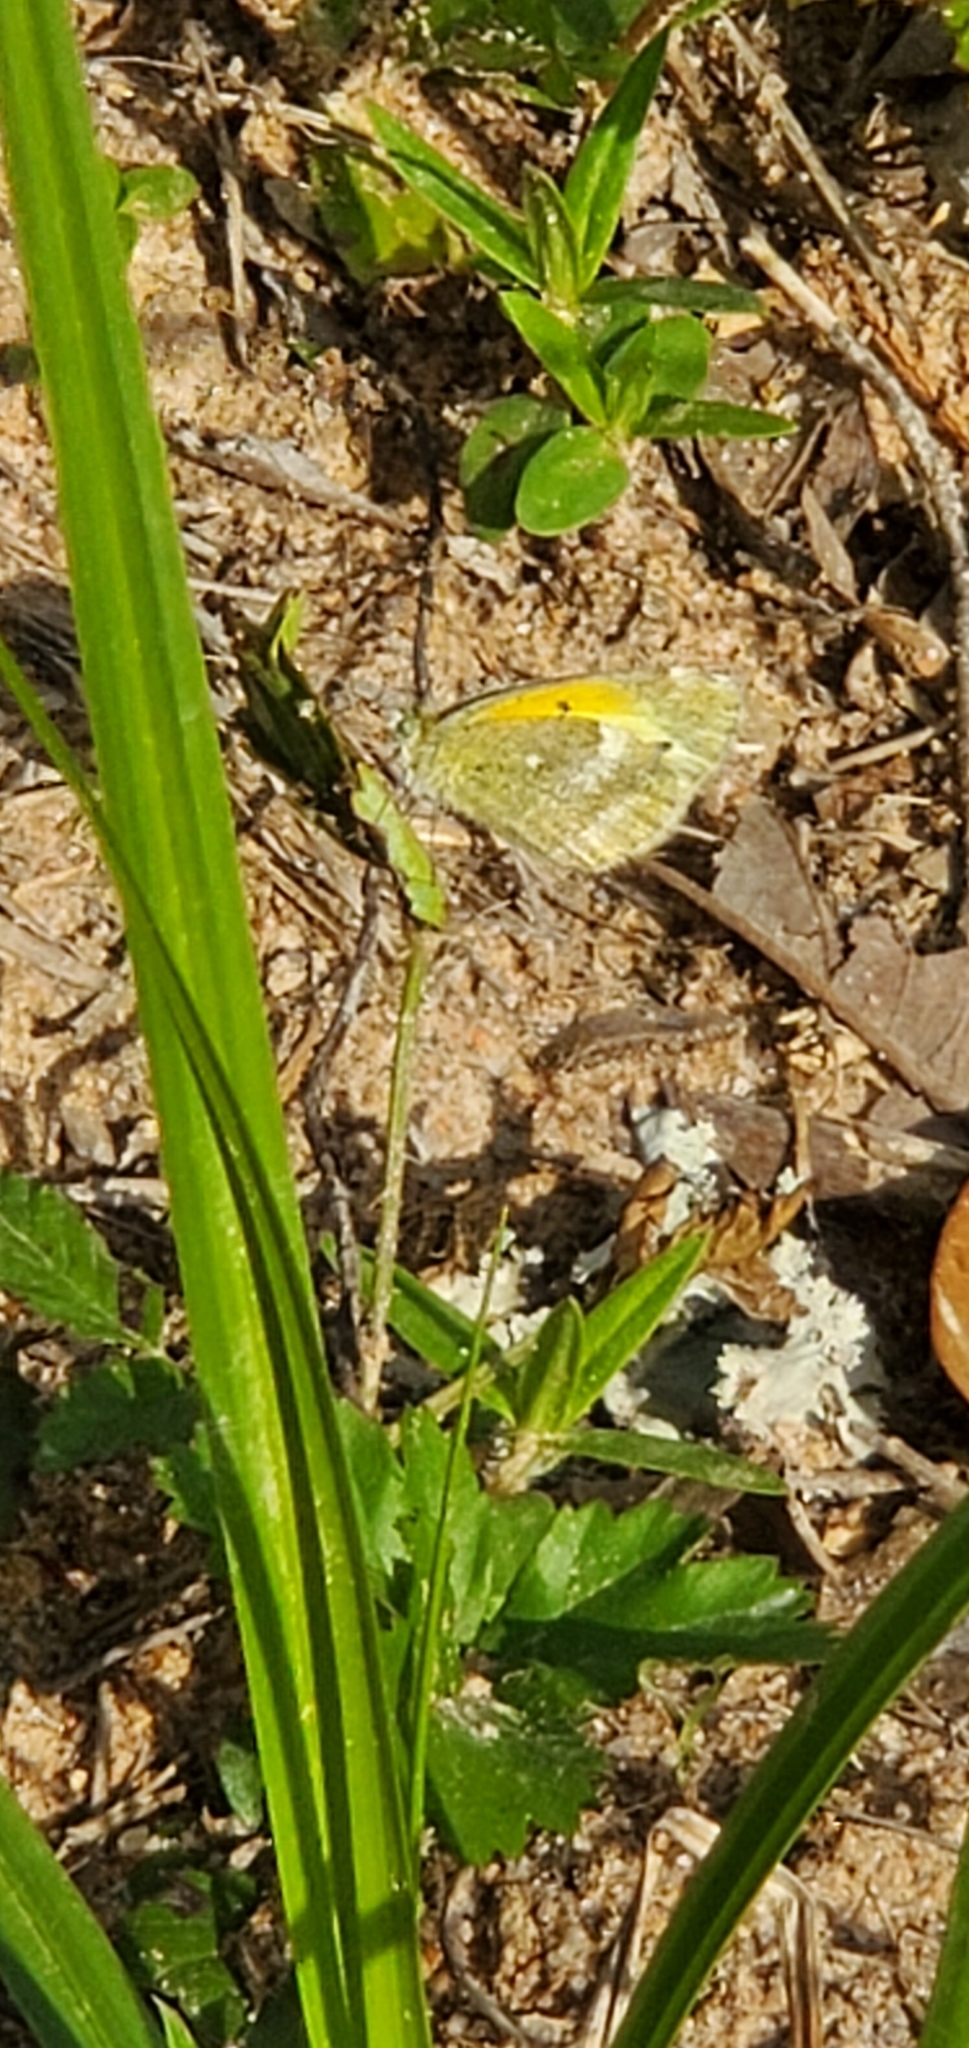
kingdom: Animalia
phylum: Arthropoda
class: Insecta
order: Lepidoptera
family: Pieridae
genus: Nathalis
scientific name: Nathalis iole
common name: Dainty sulphur
